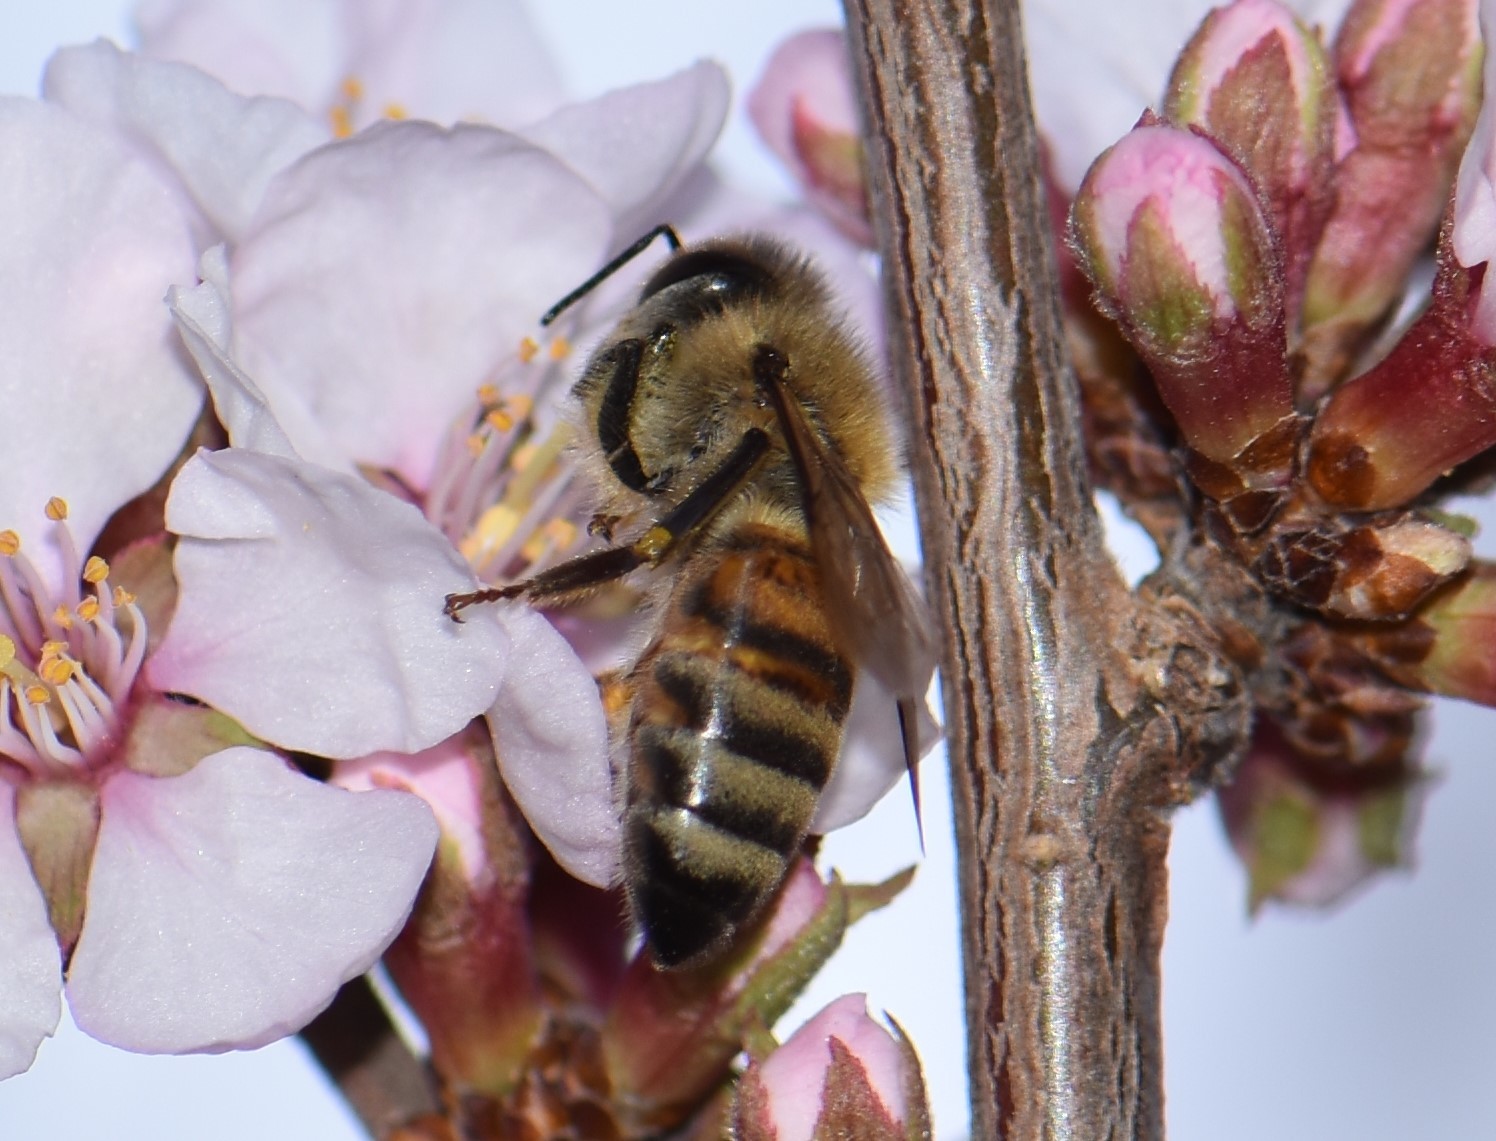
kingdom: Animalia
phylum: Arthropoda
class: Insecta
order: Hymenoptera
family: Apidae
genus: Apis
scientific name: Apis mellifera
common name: Honey bee
